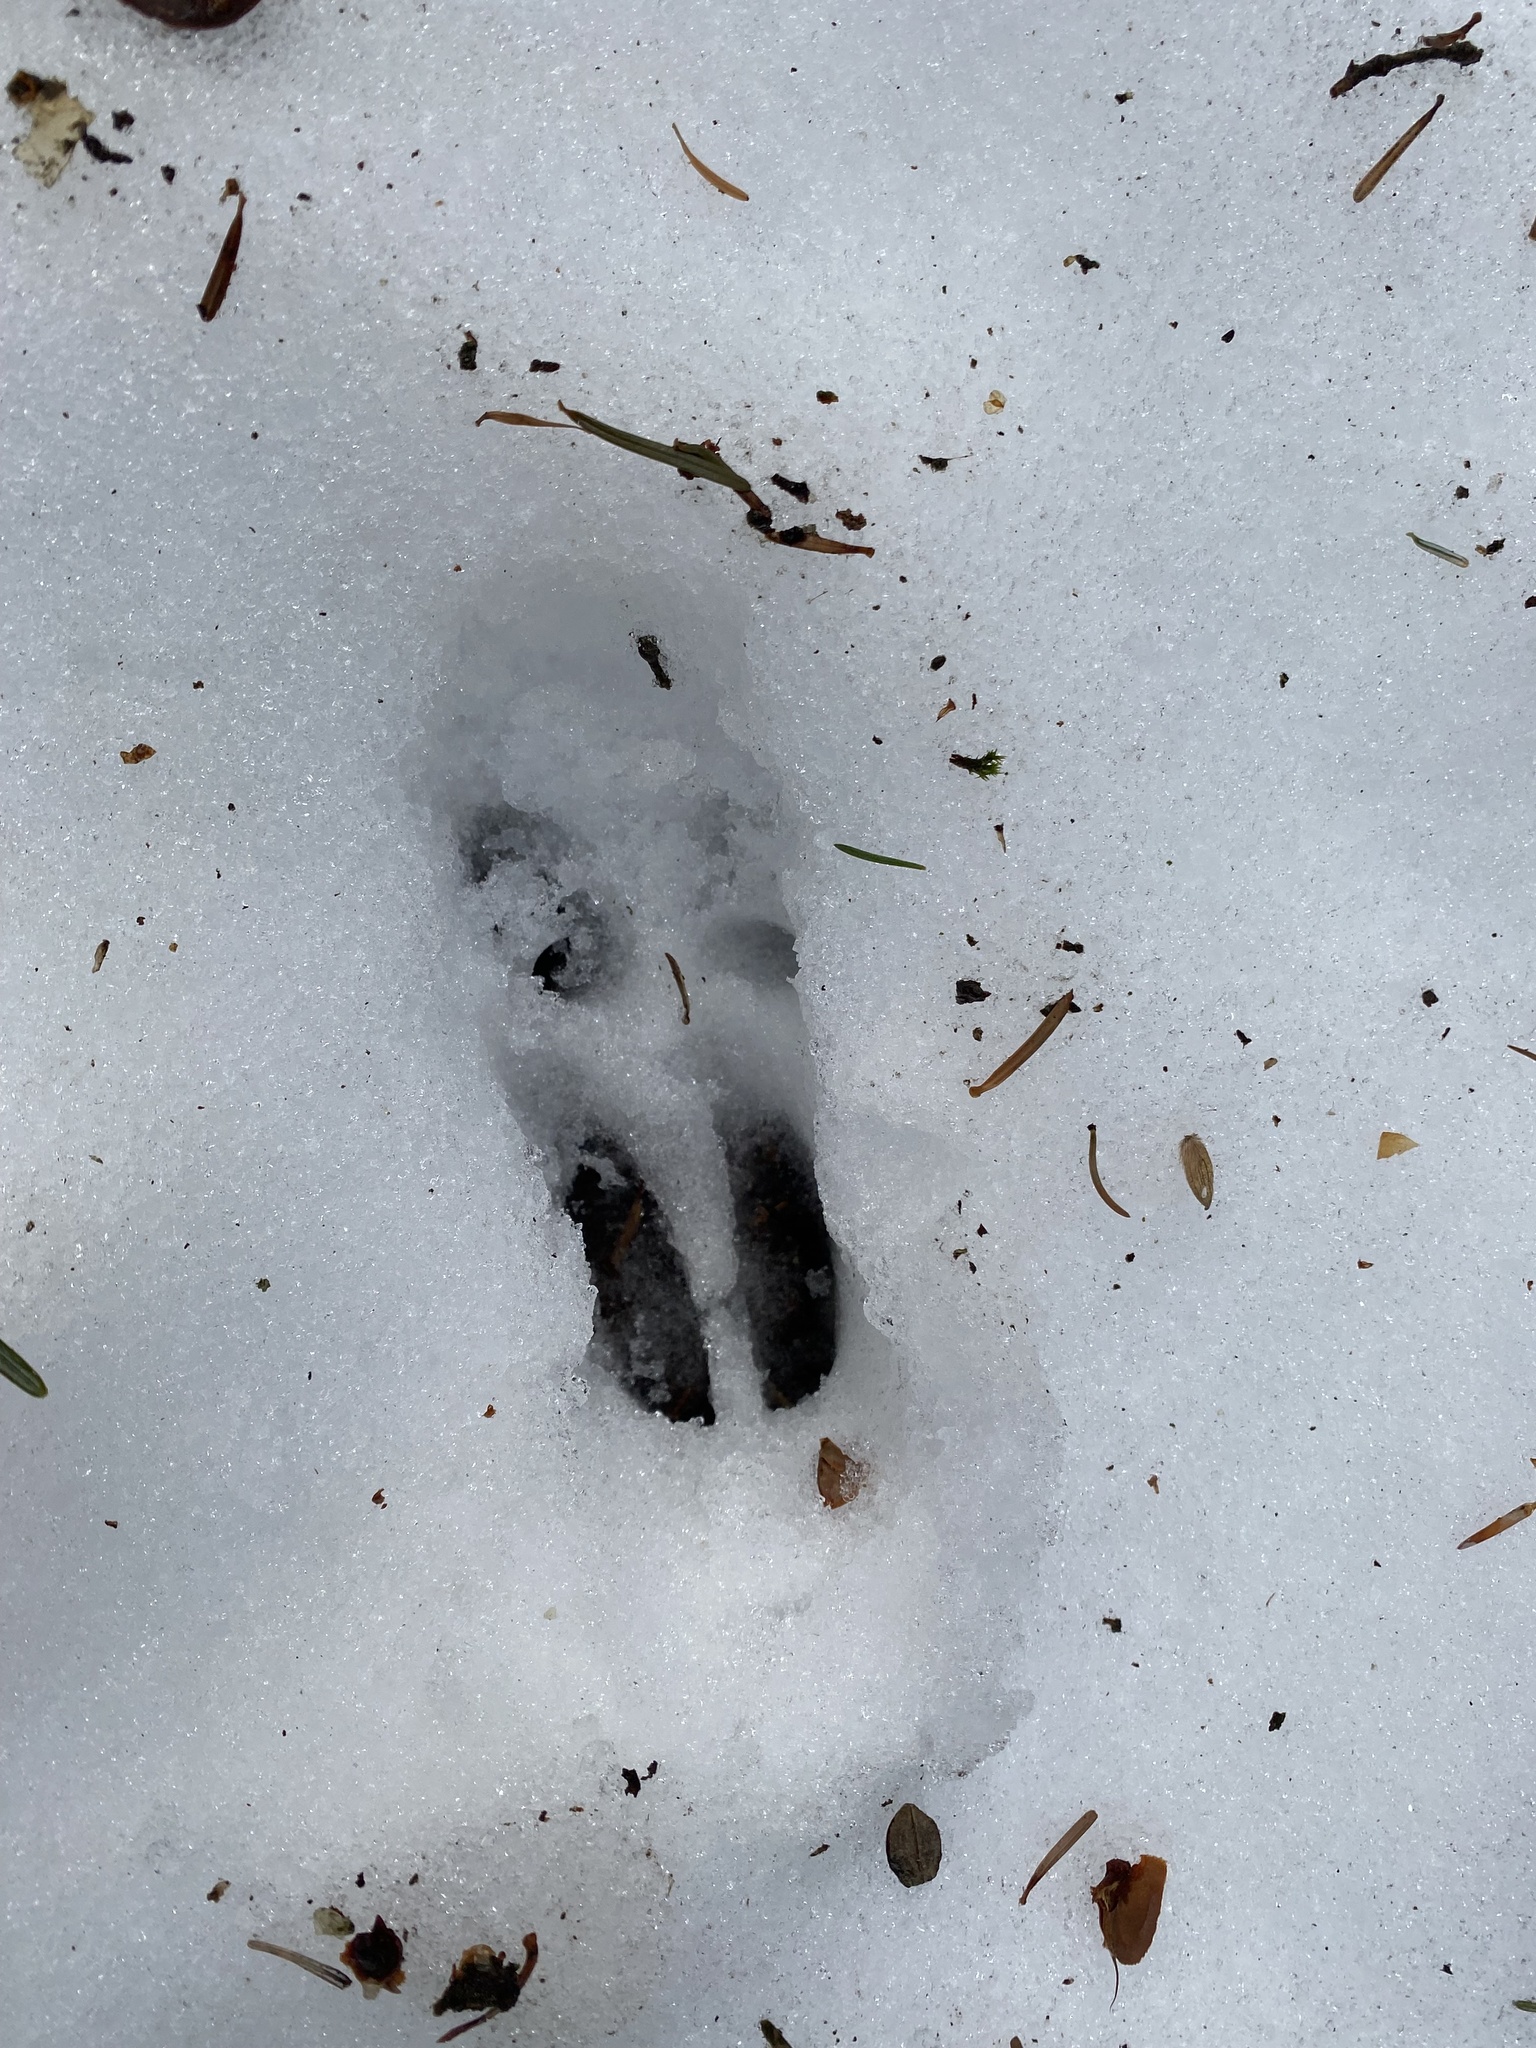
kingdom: Animalia
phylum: Chordata
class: Mammalia
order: Artiodactyla
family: Cervidae
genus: Capreolus
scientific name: Capreolus capreolus
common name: Western roe deer
